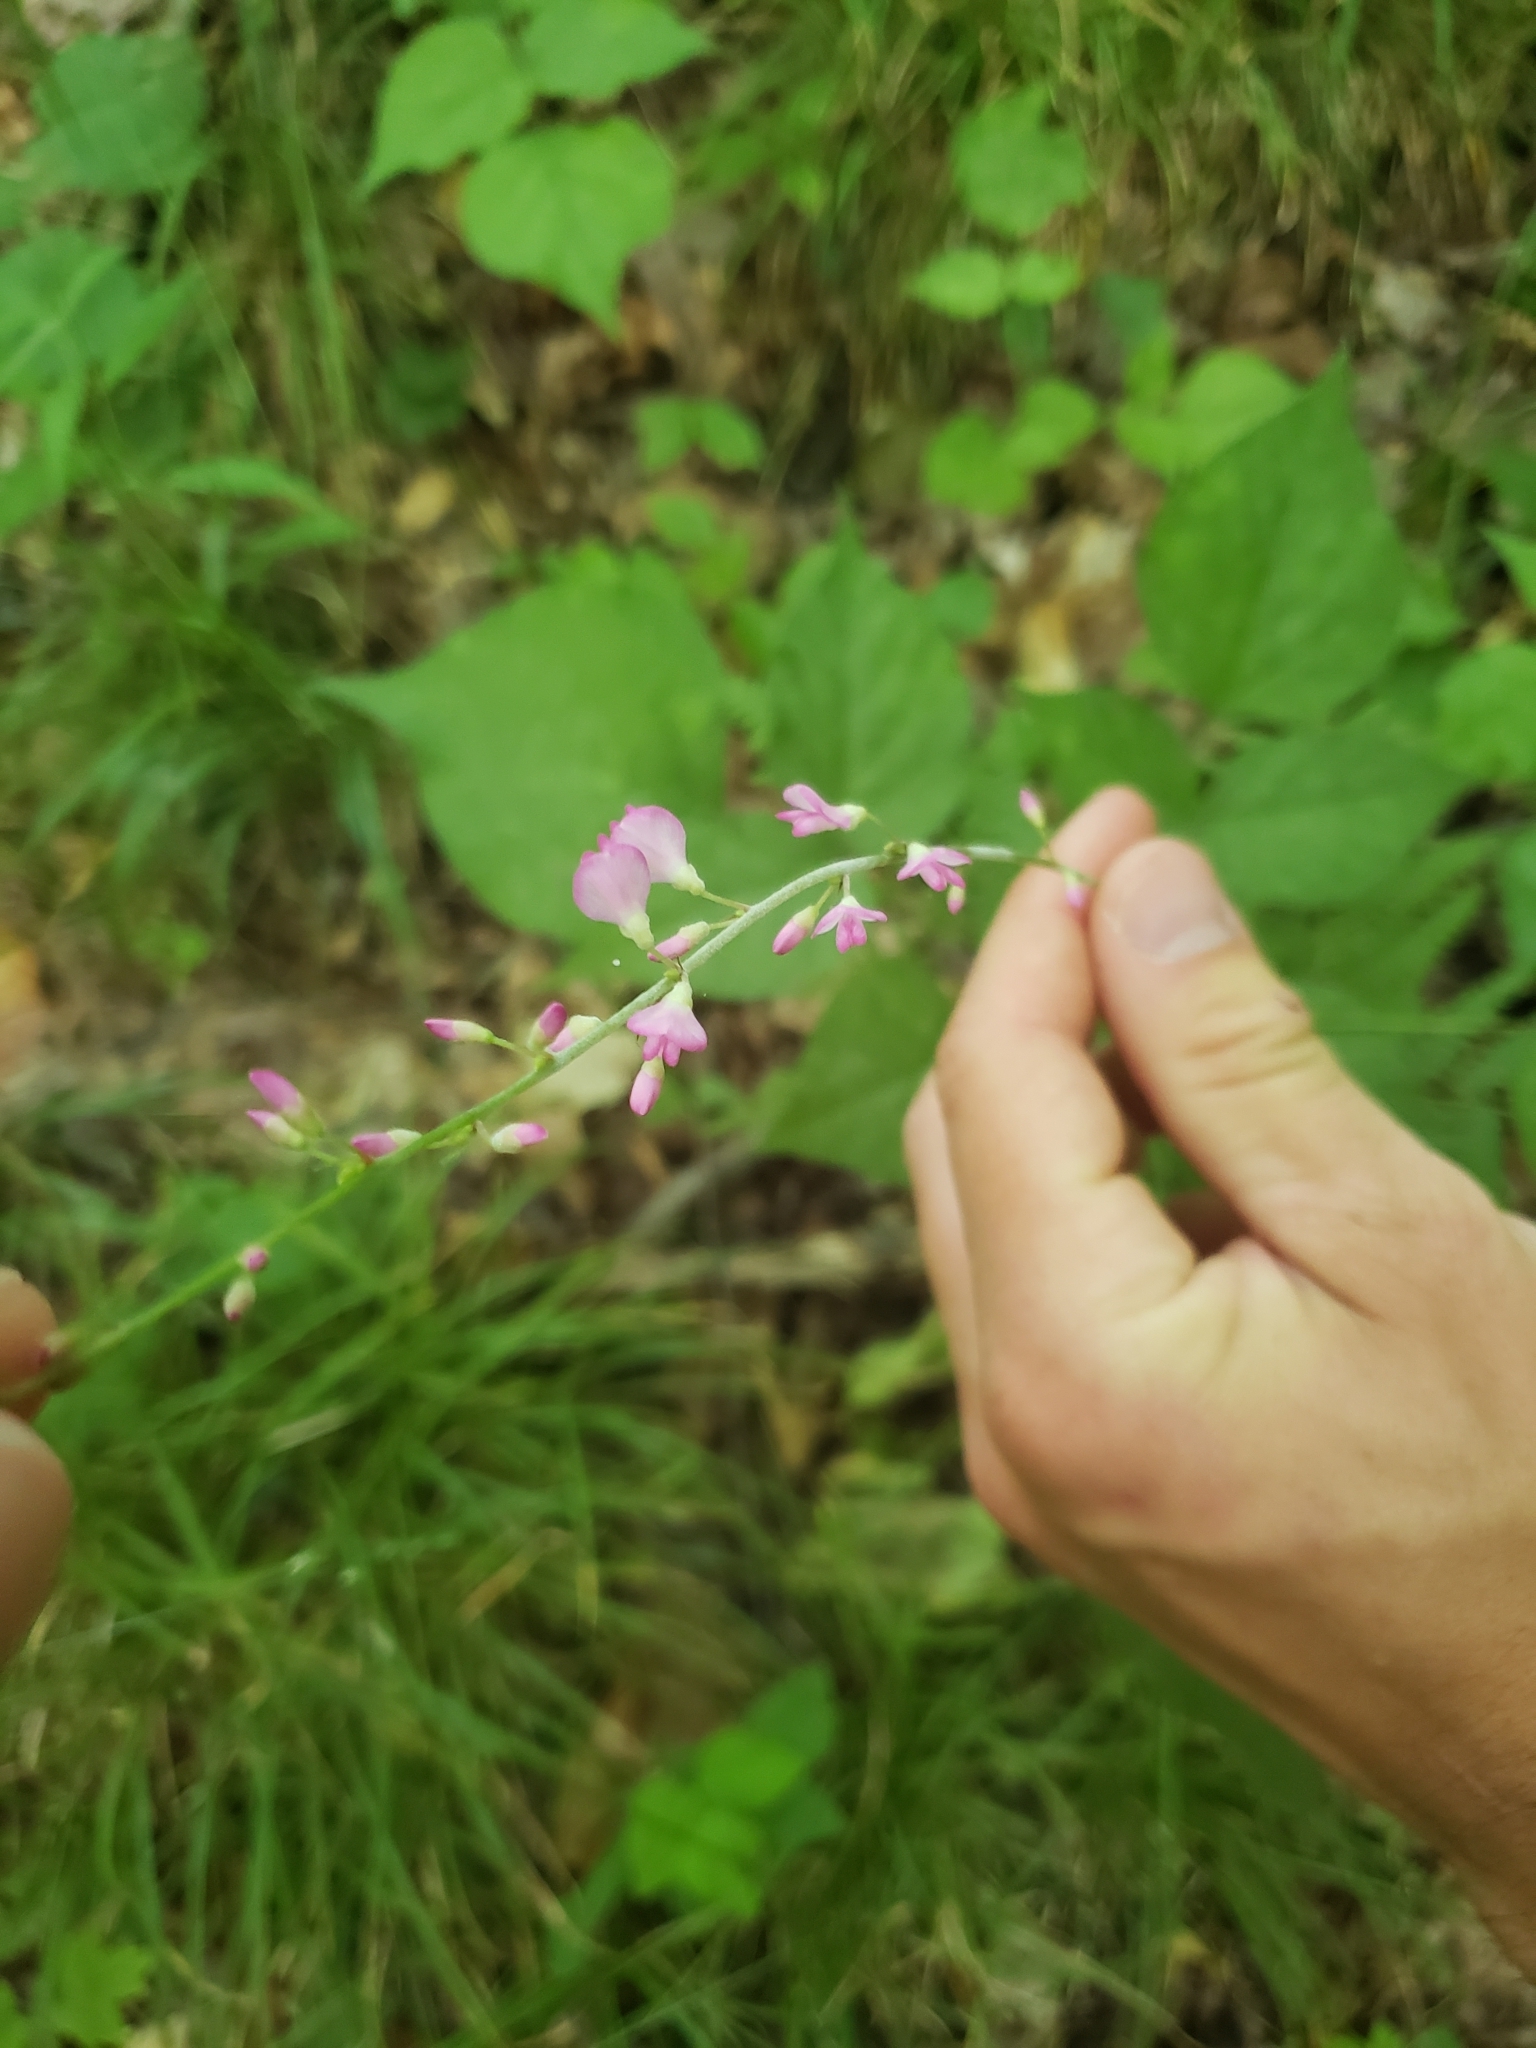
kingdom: Plantae
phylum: Tracheophyta
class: Magnoliopsida
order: Fabales
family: Fabaceae
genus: Hylodesmum
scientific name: Hylodesmum glutinosum
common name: Clustered-leaved tick-trefoil
